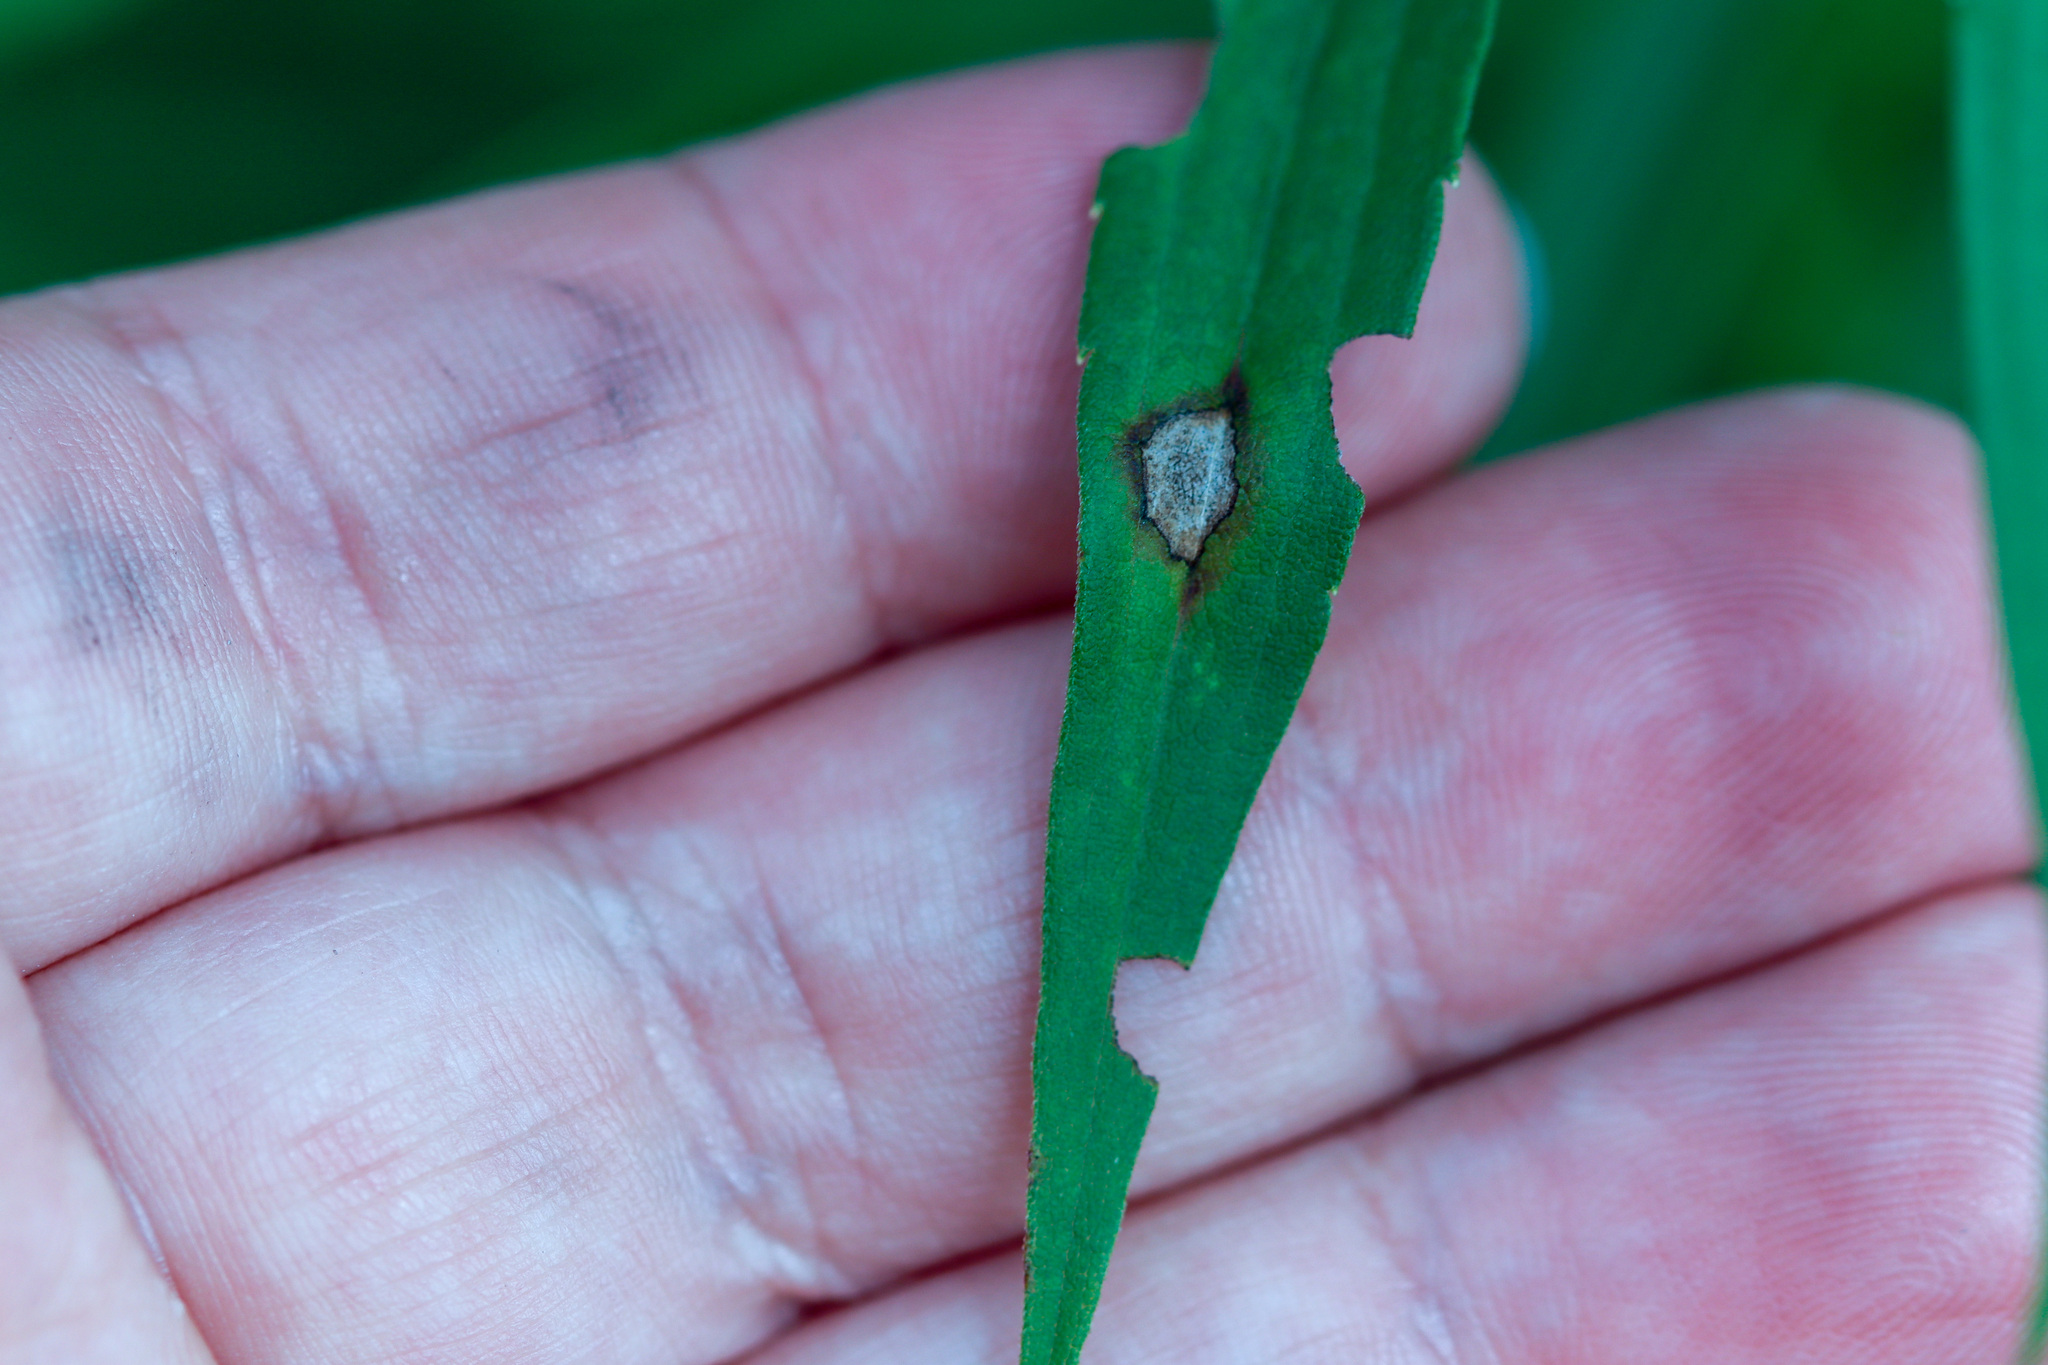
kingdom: Animalia
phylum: Arthropoda
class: Insecta
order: Diptera
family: Cecidomyiidae
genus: Asteromyia
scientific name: Asteromyia carbonifera
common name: Carbonifera goldenrod gall midge
